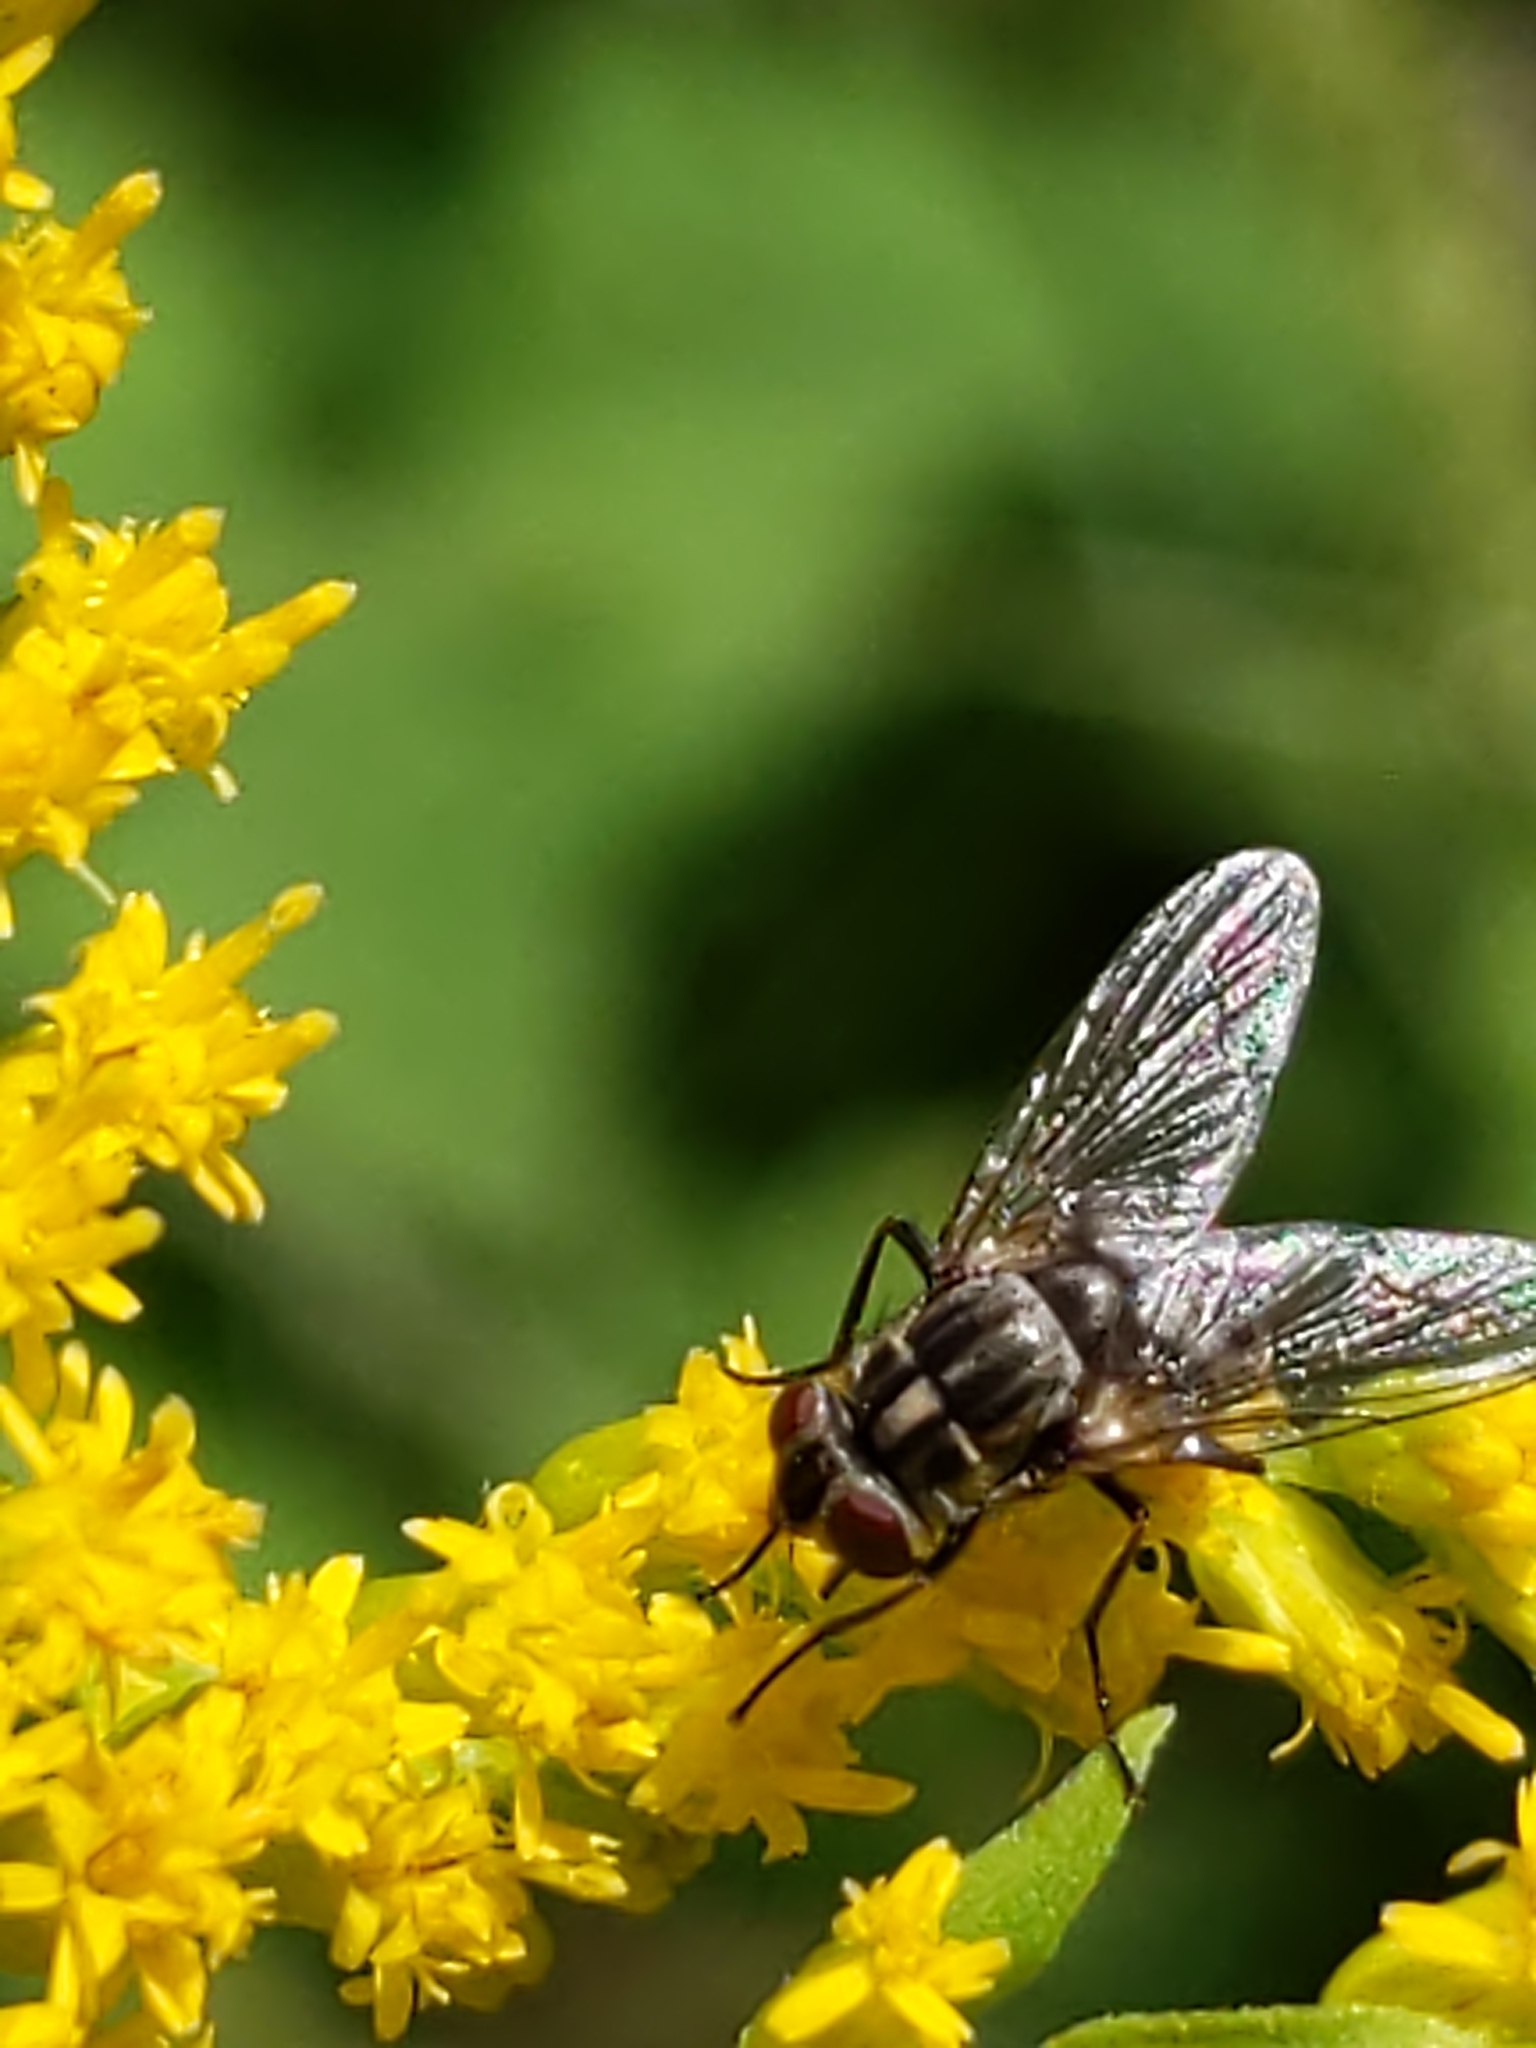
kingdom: Animalia
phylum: Arthropoda
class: Insecta
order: Diptera
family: Muscidae
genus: Stomoxys
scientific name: Stomoxys calcitrans
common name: Stable fly
